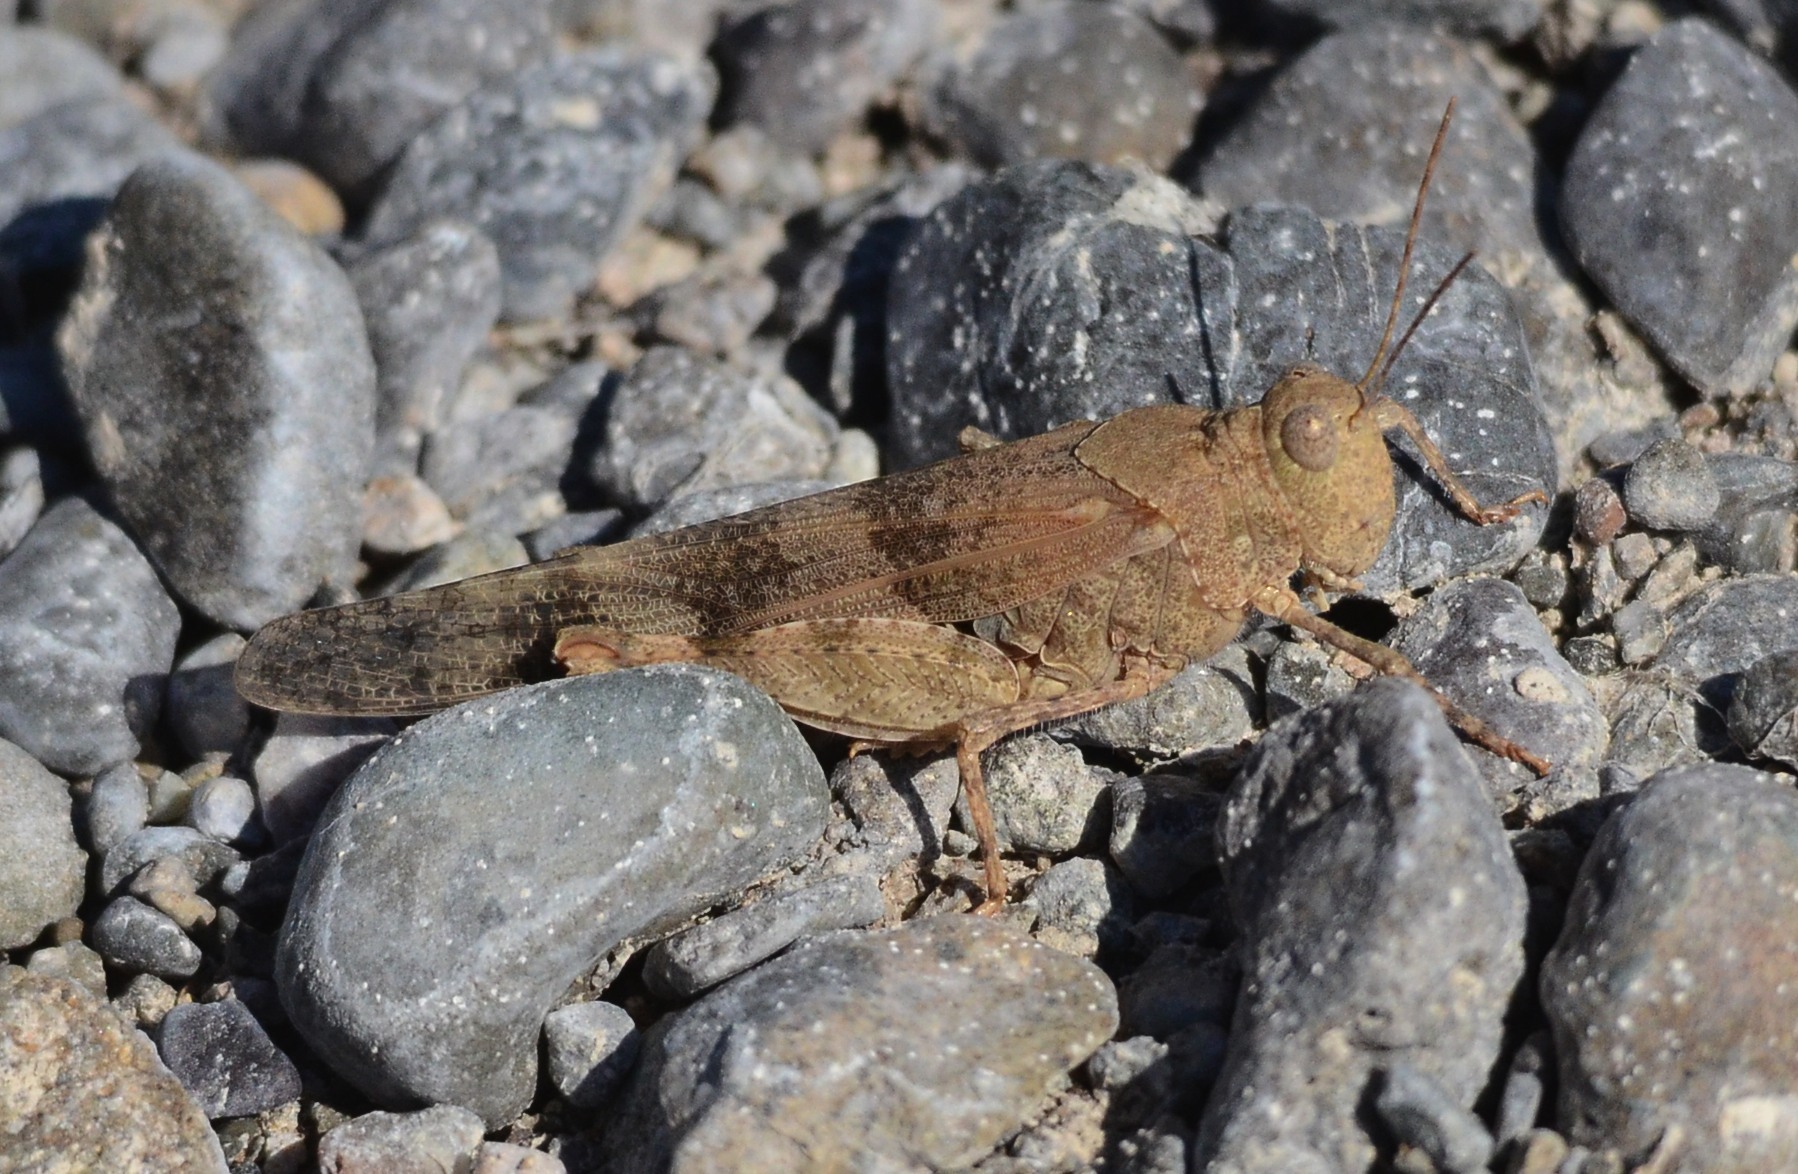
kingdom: Animalia
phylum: Arthropoda
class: Insecta
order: Orthoptera
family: Acrididae
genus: Trimerotropis
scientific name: Trimerotropis pallidipennis
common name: Pallid-winged grasshopper
